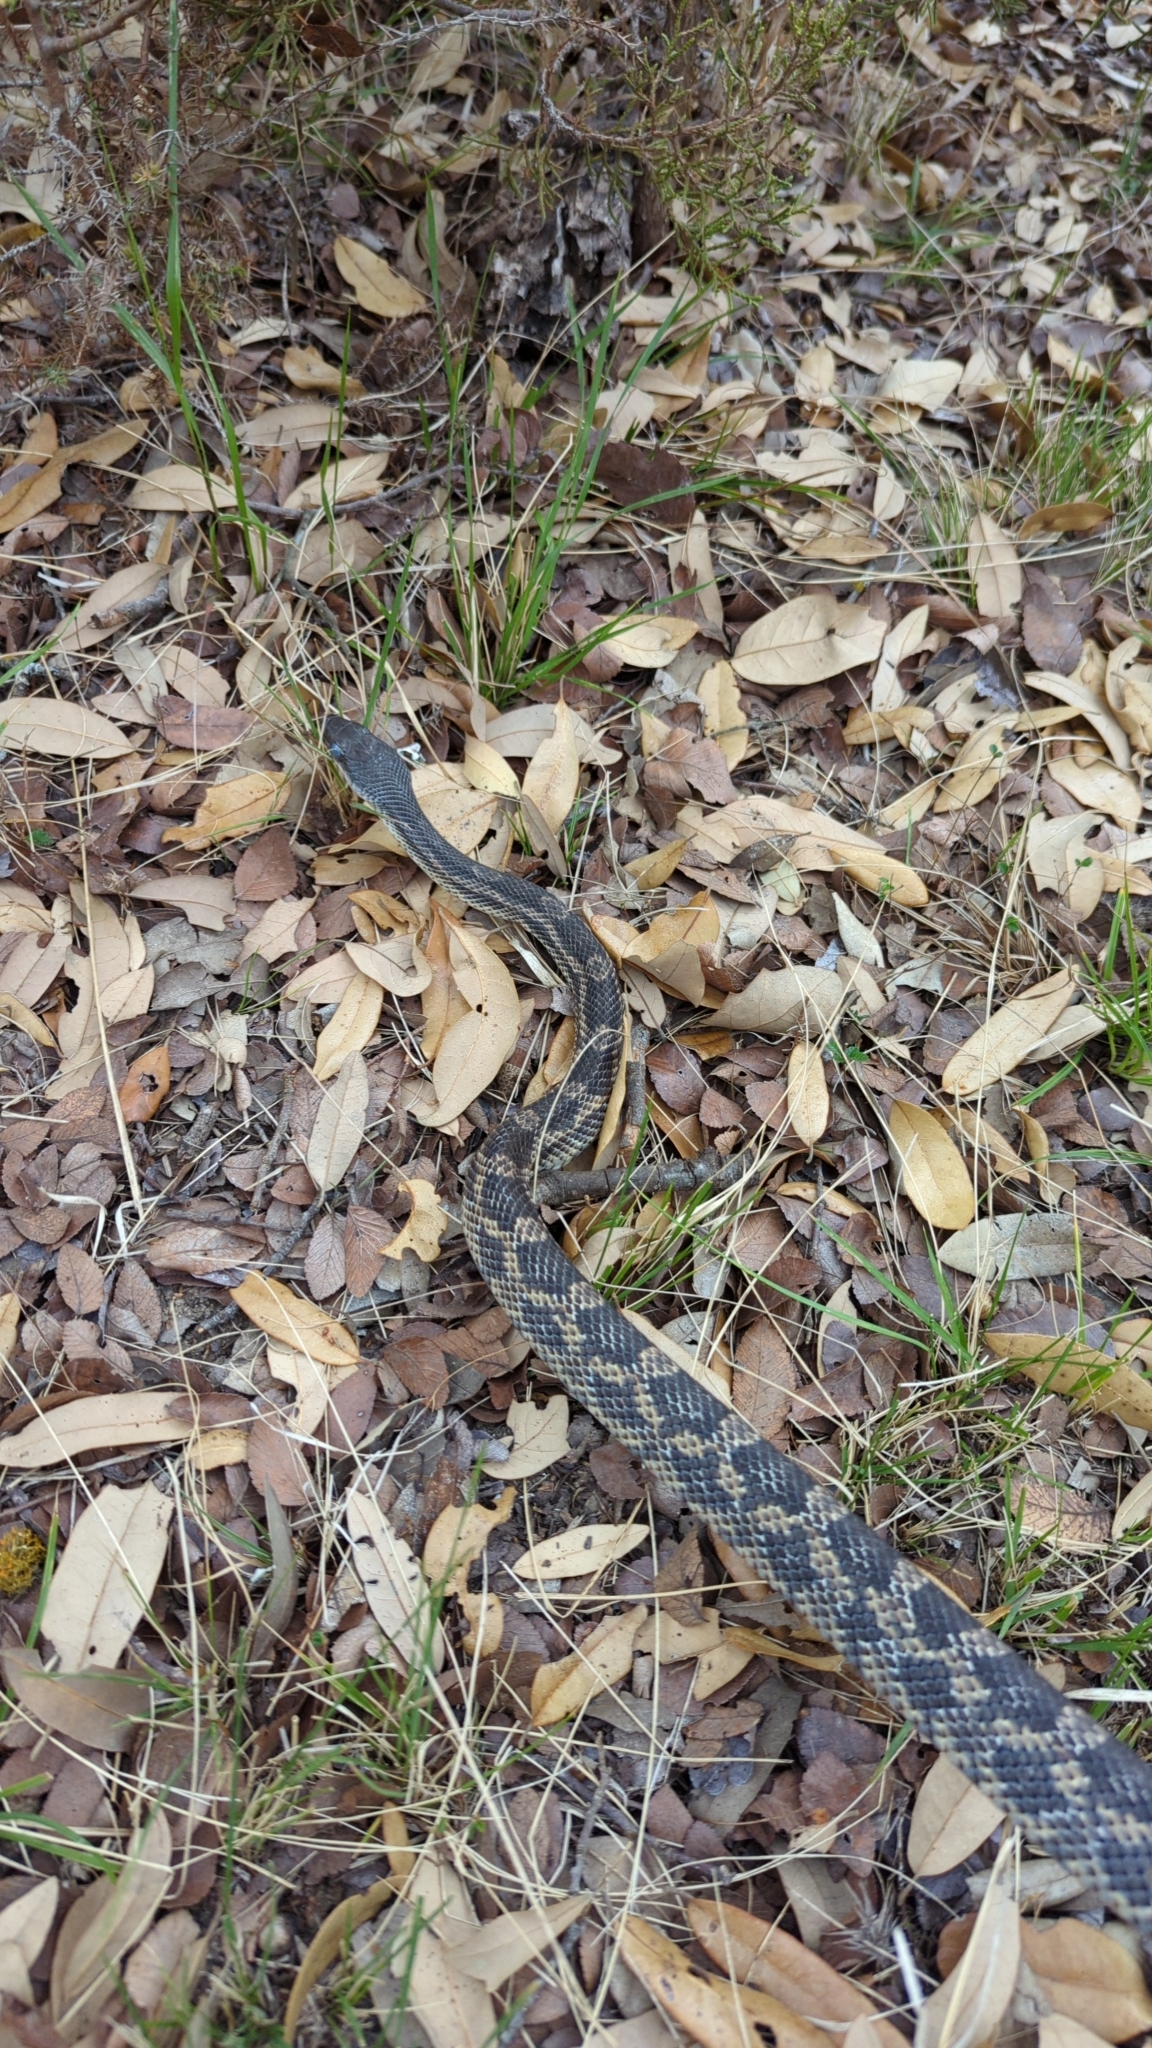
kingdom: Animalia
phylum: Chordata
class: Squamata
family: Colubridae
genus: Pantherophis
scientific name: Pantherophis obsoletus
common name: Black rat snake
